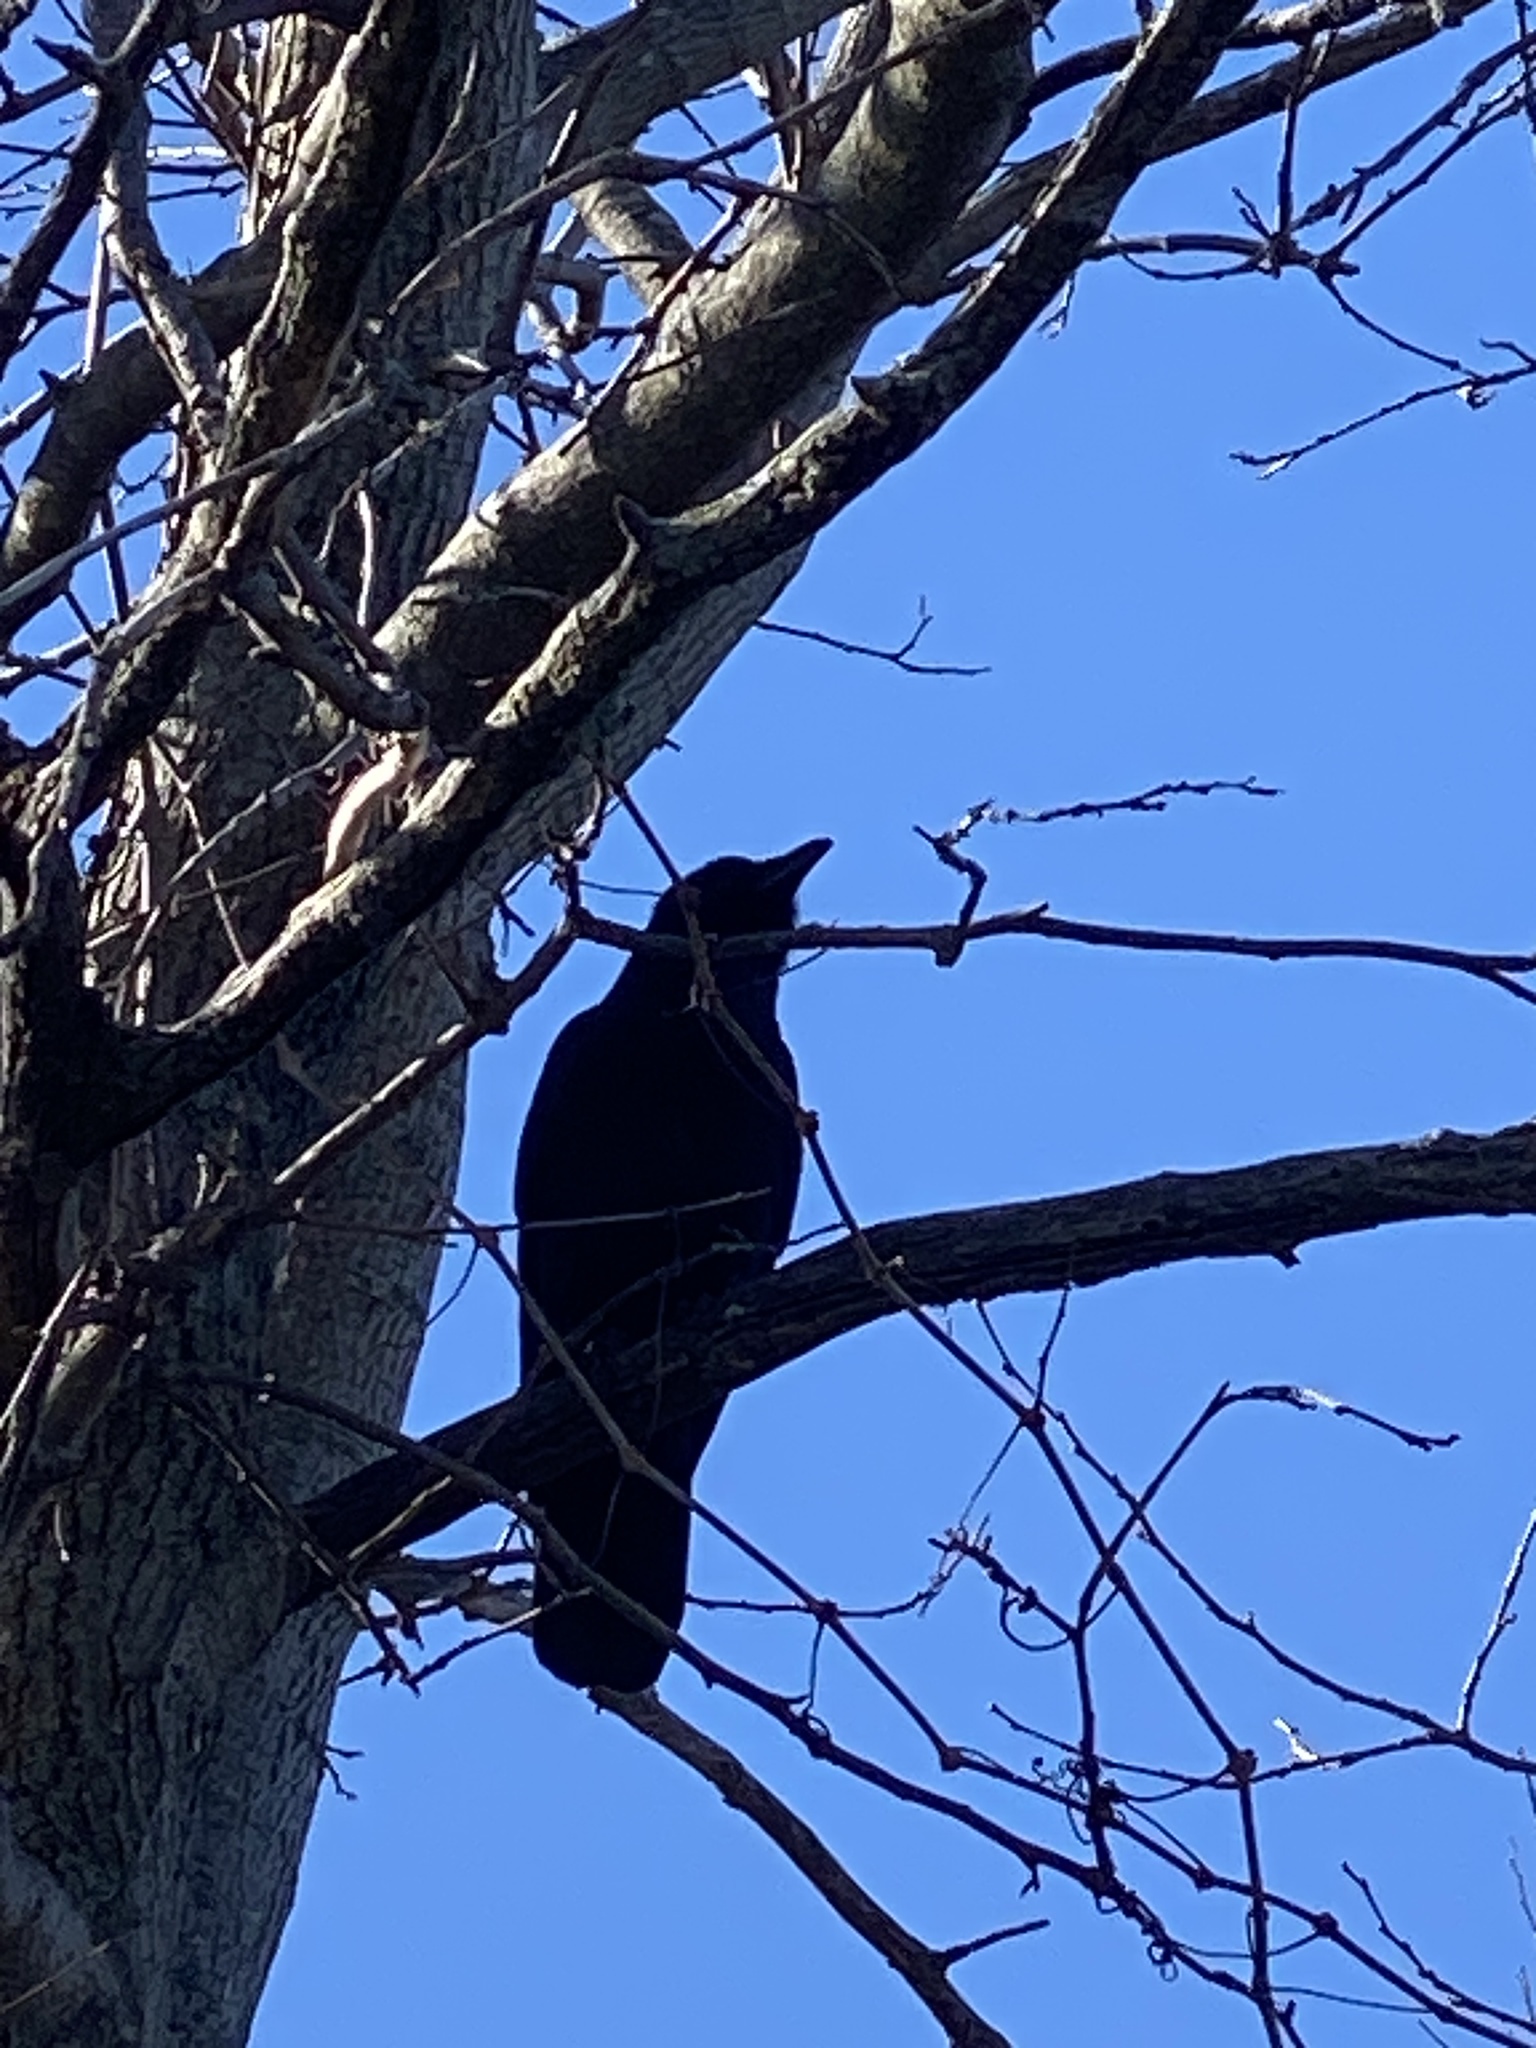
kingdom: Animalia
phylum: Chordata
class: Aves
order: Passeriformes
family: Corvidae
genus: Corvus
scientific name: Corvus ossifragus
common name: Fish crow
